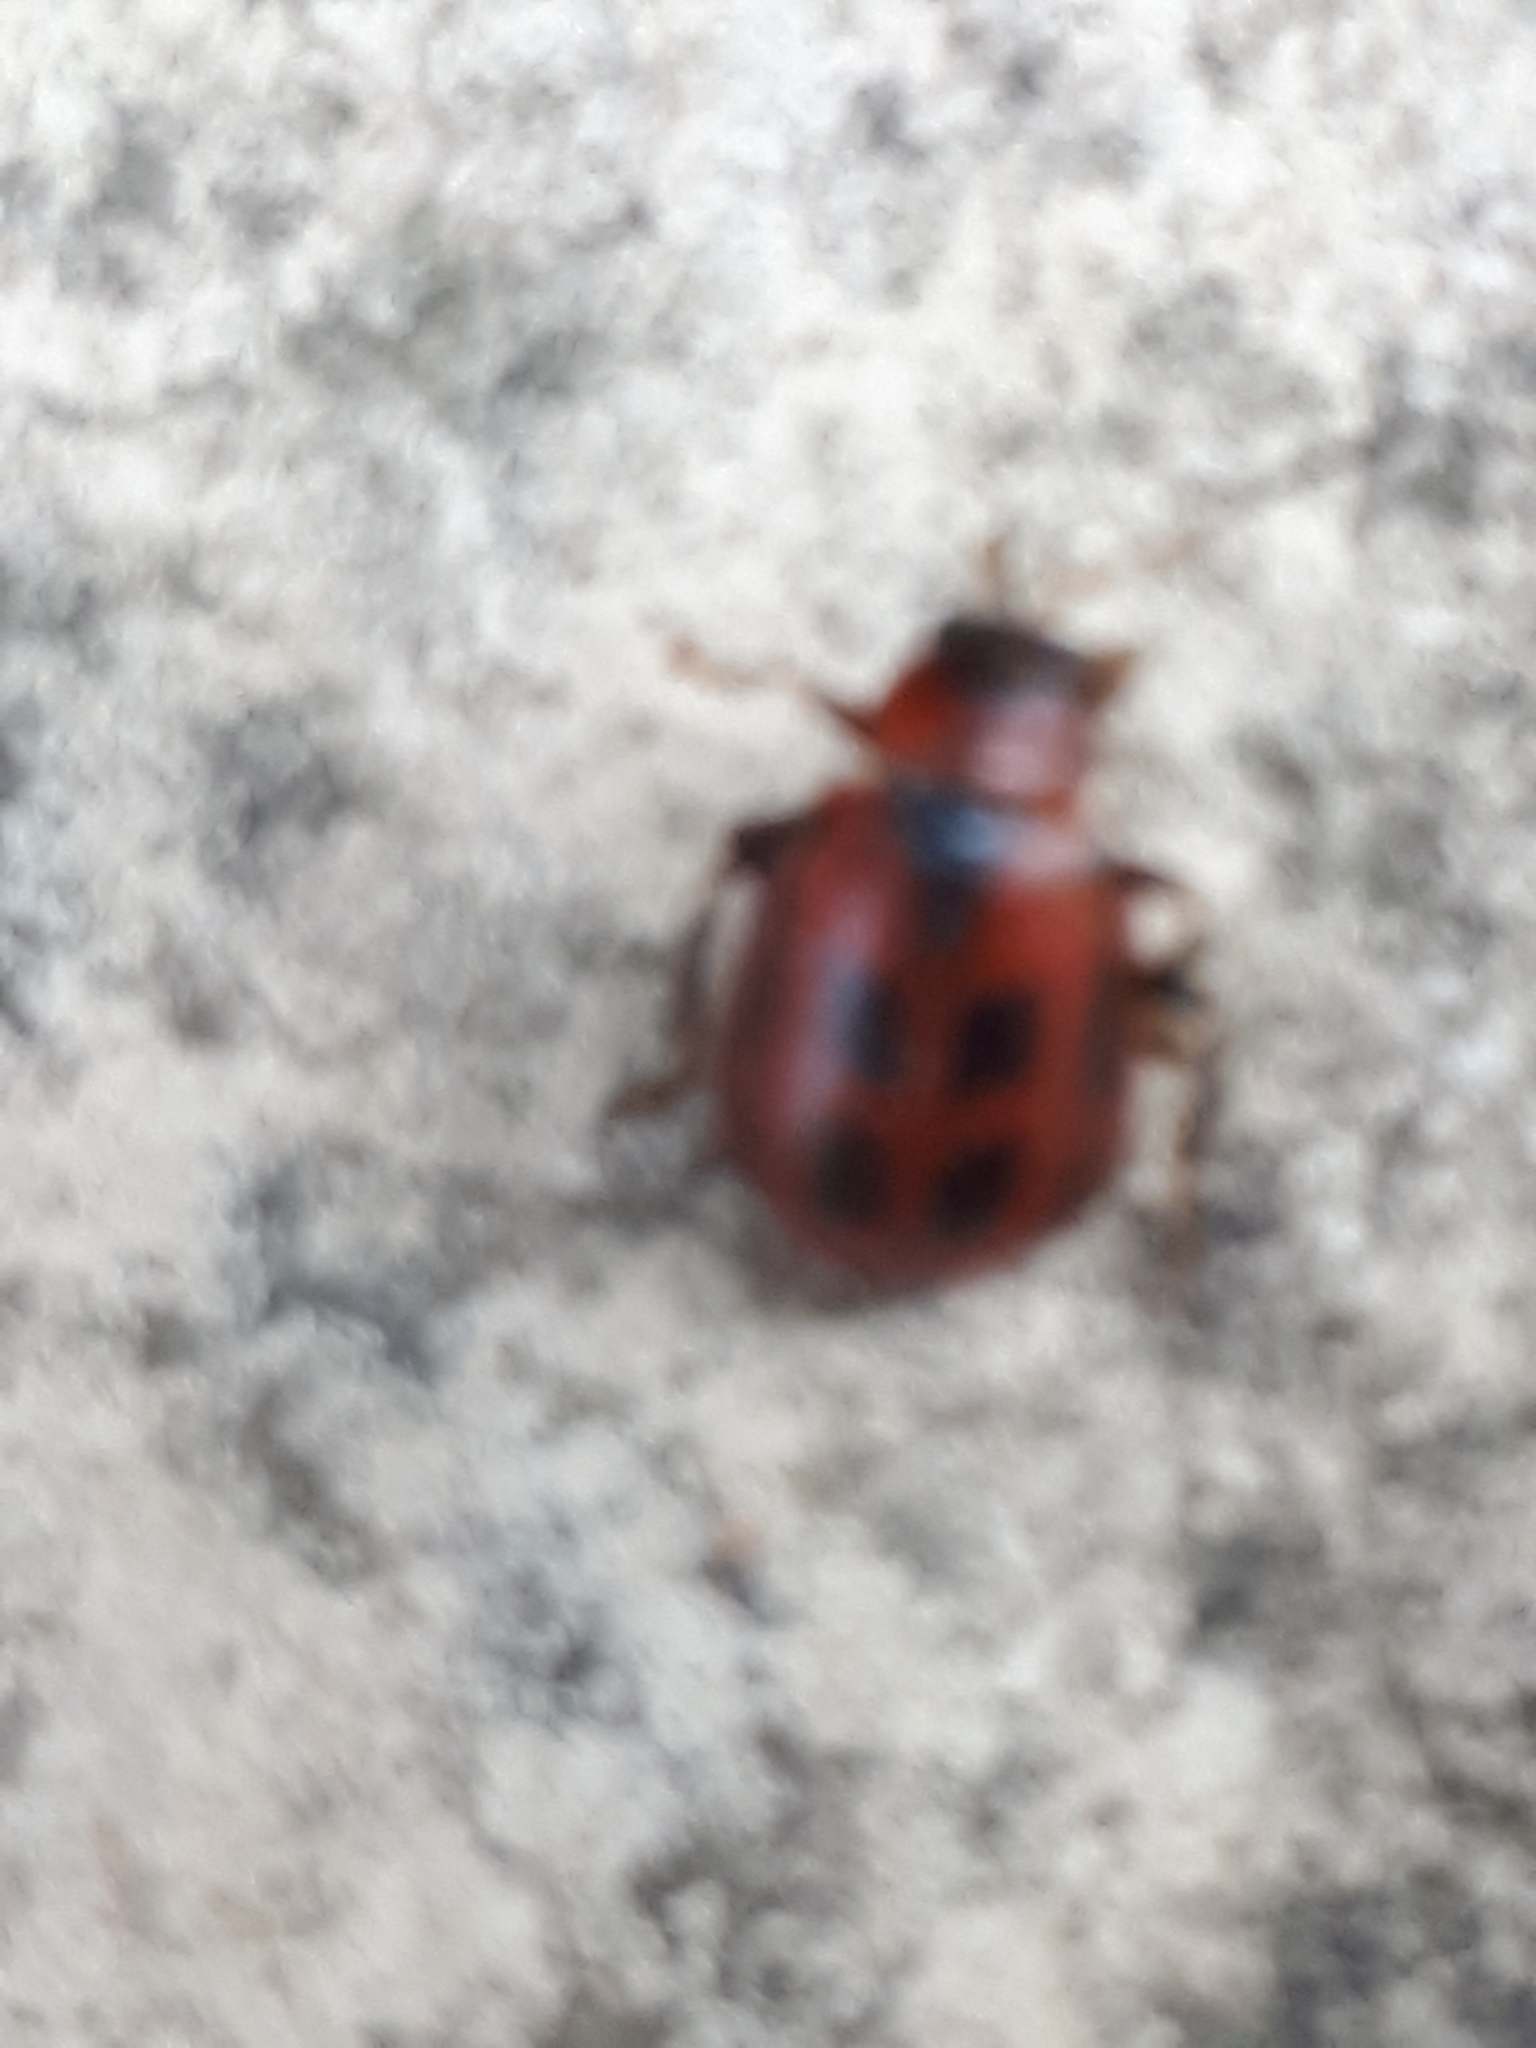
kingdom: Animalia
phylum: Arthropoda
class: Insecta
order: Coleoptera
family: Chrysomelidae
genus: Cerotoma
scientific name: Cerotoma trifurcata
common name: Bean leaf beetle
